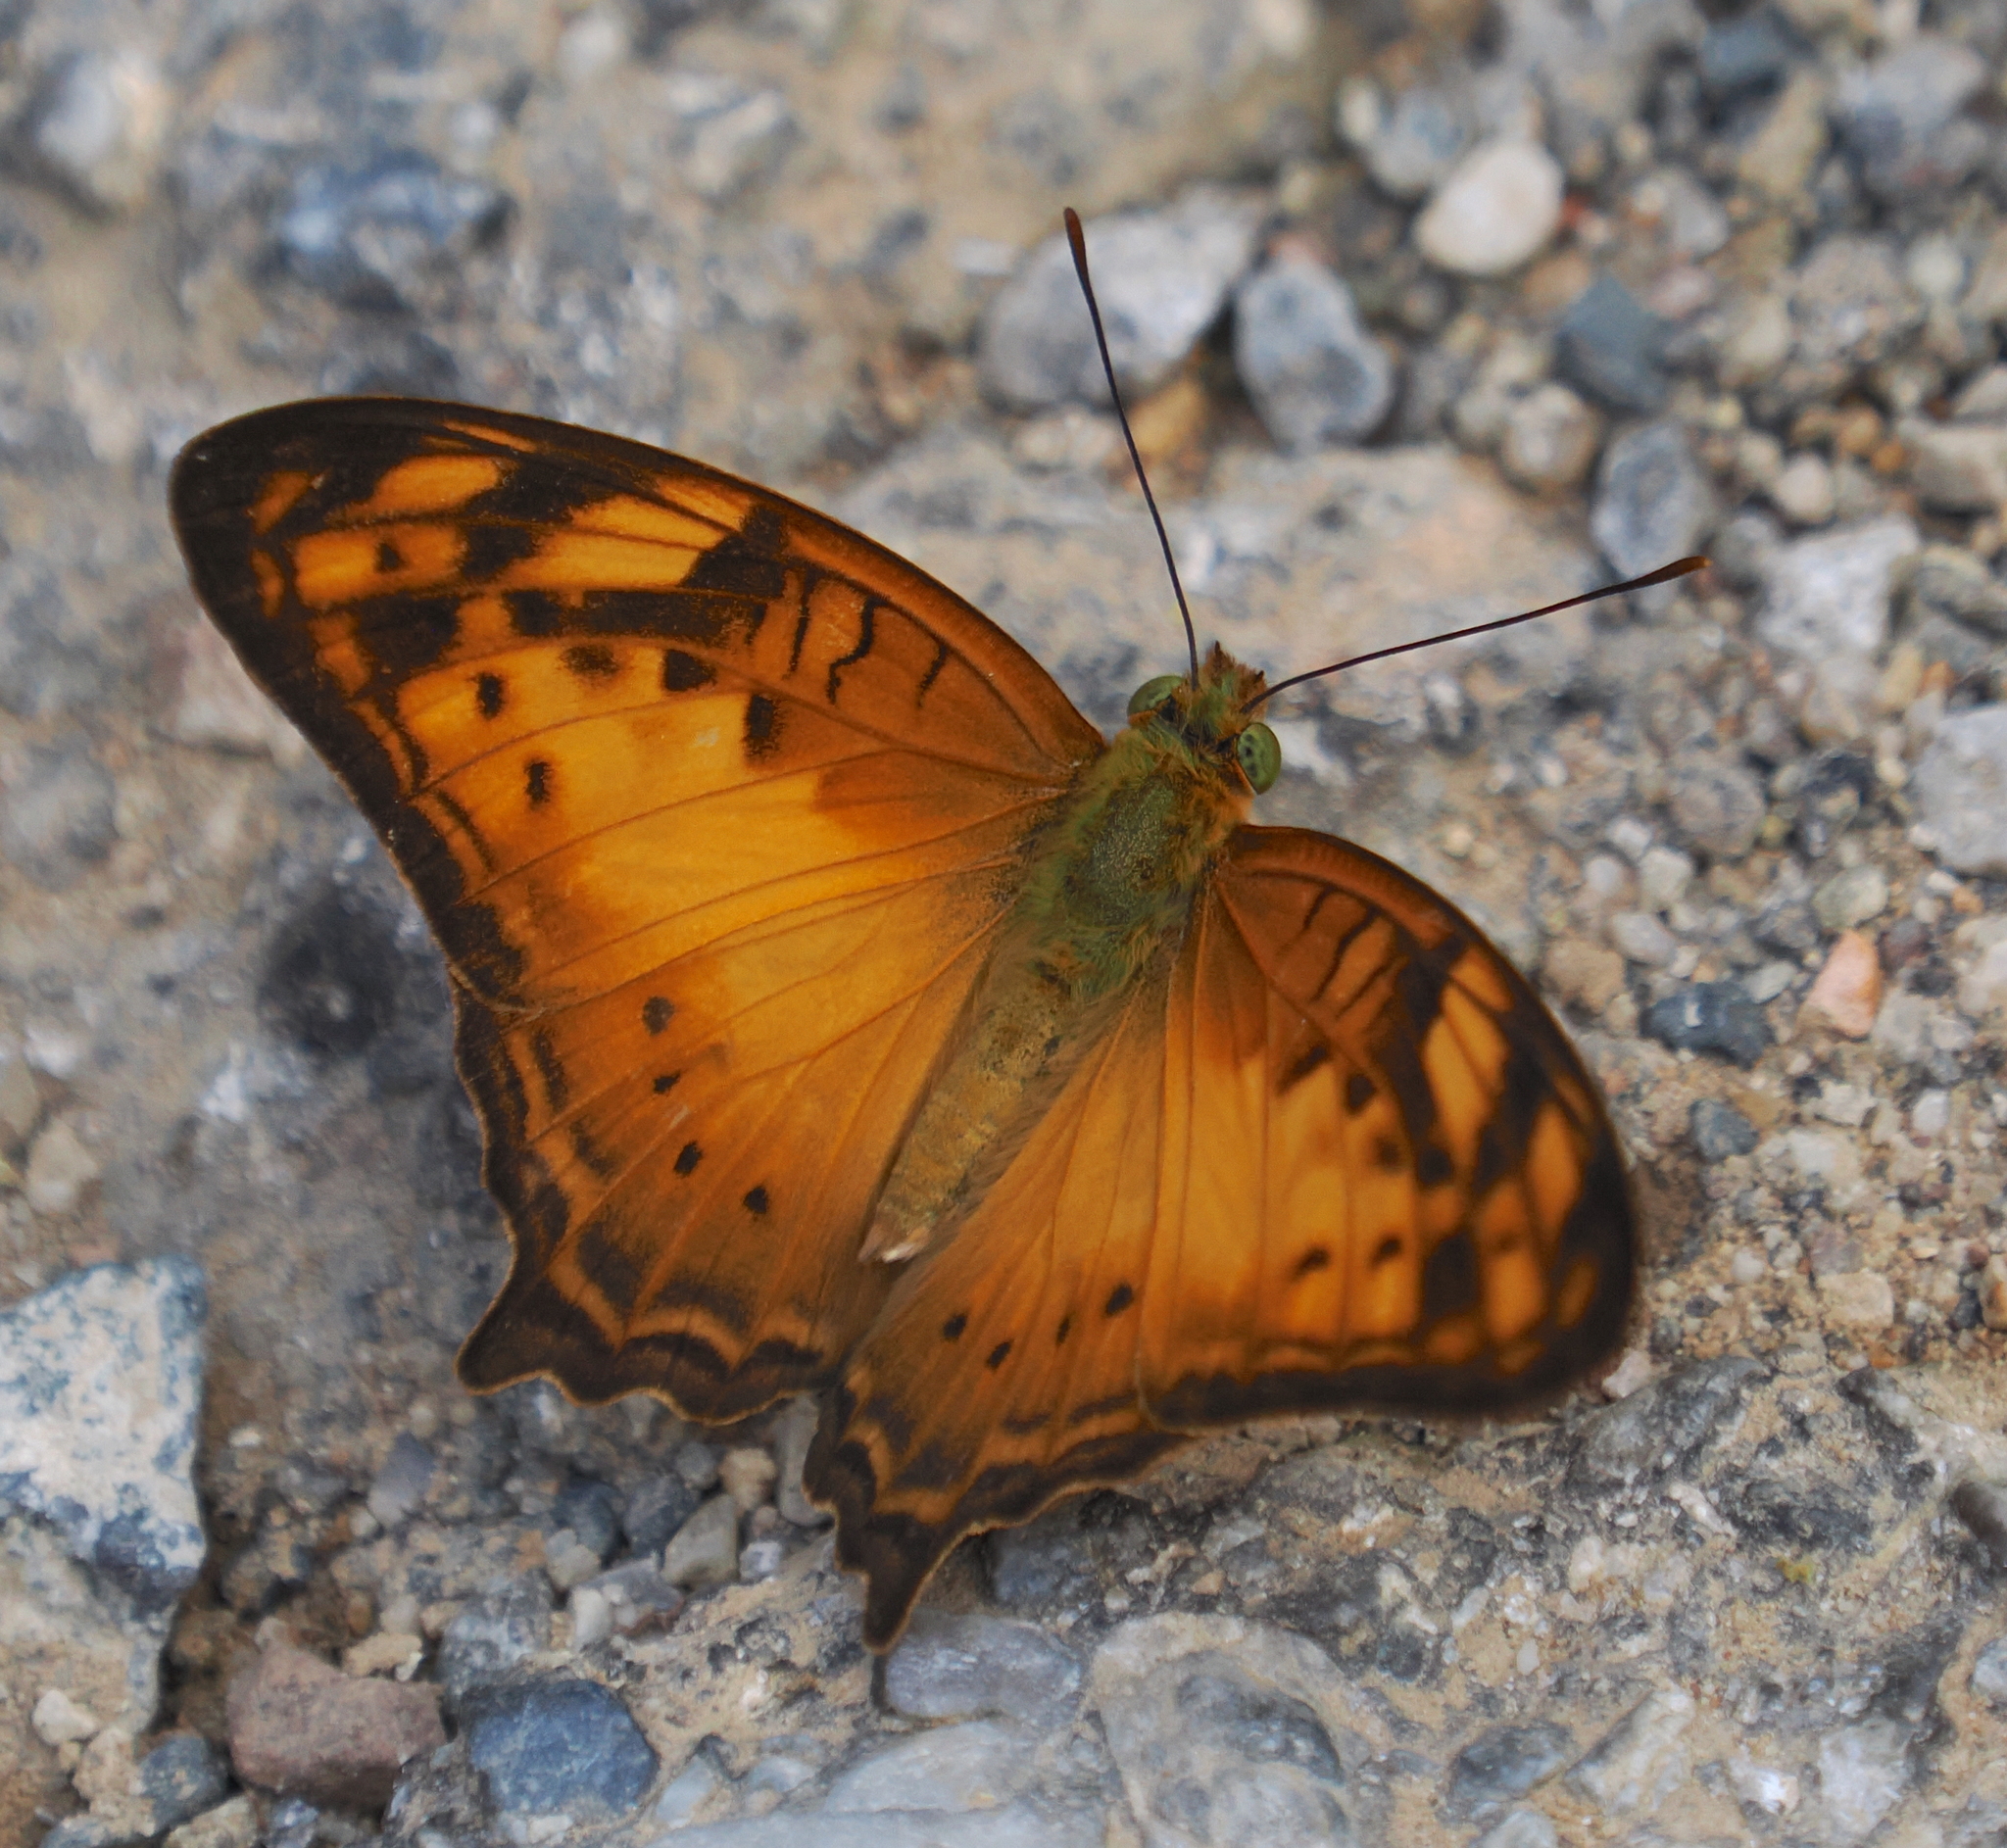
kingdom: Animalia
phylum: Arthropoda
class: Insecta
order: Lepidoptera
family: Nymphalidae
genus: Vagrans
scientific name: Vagrans sinha
